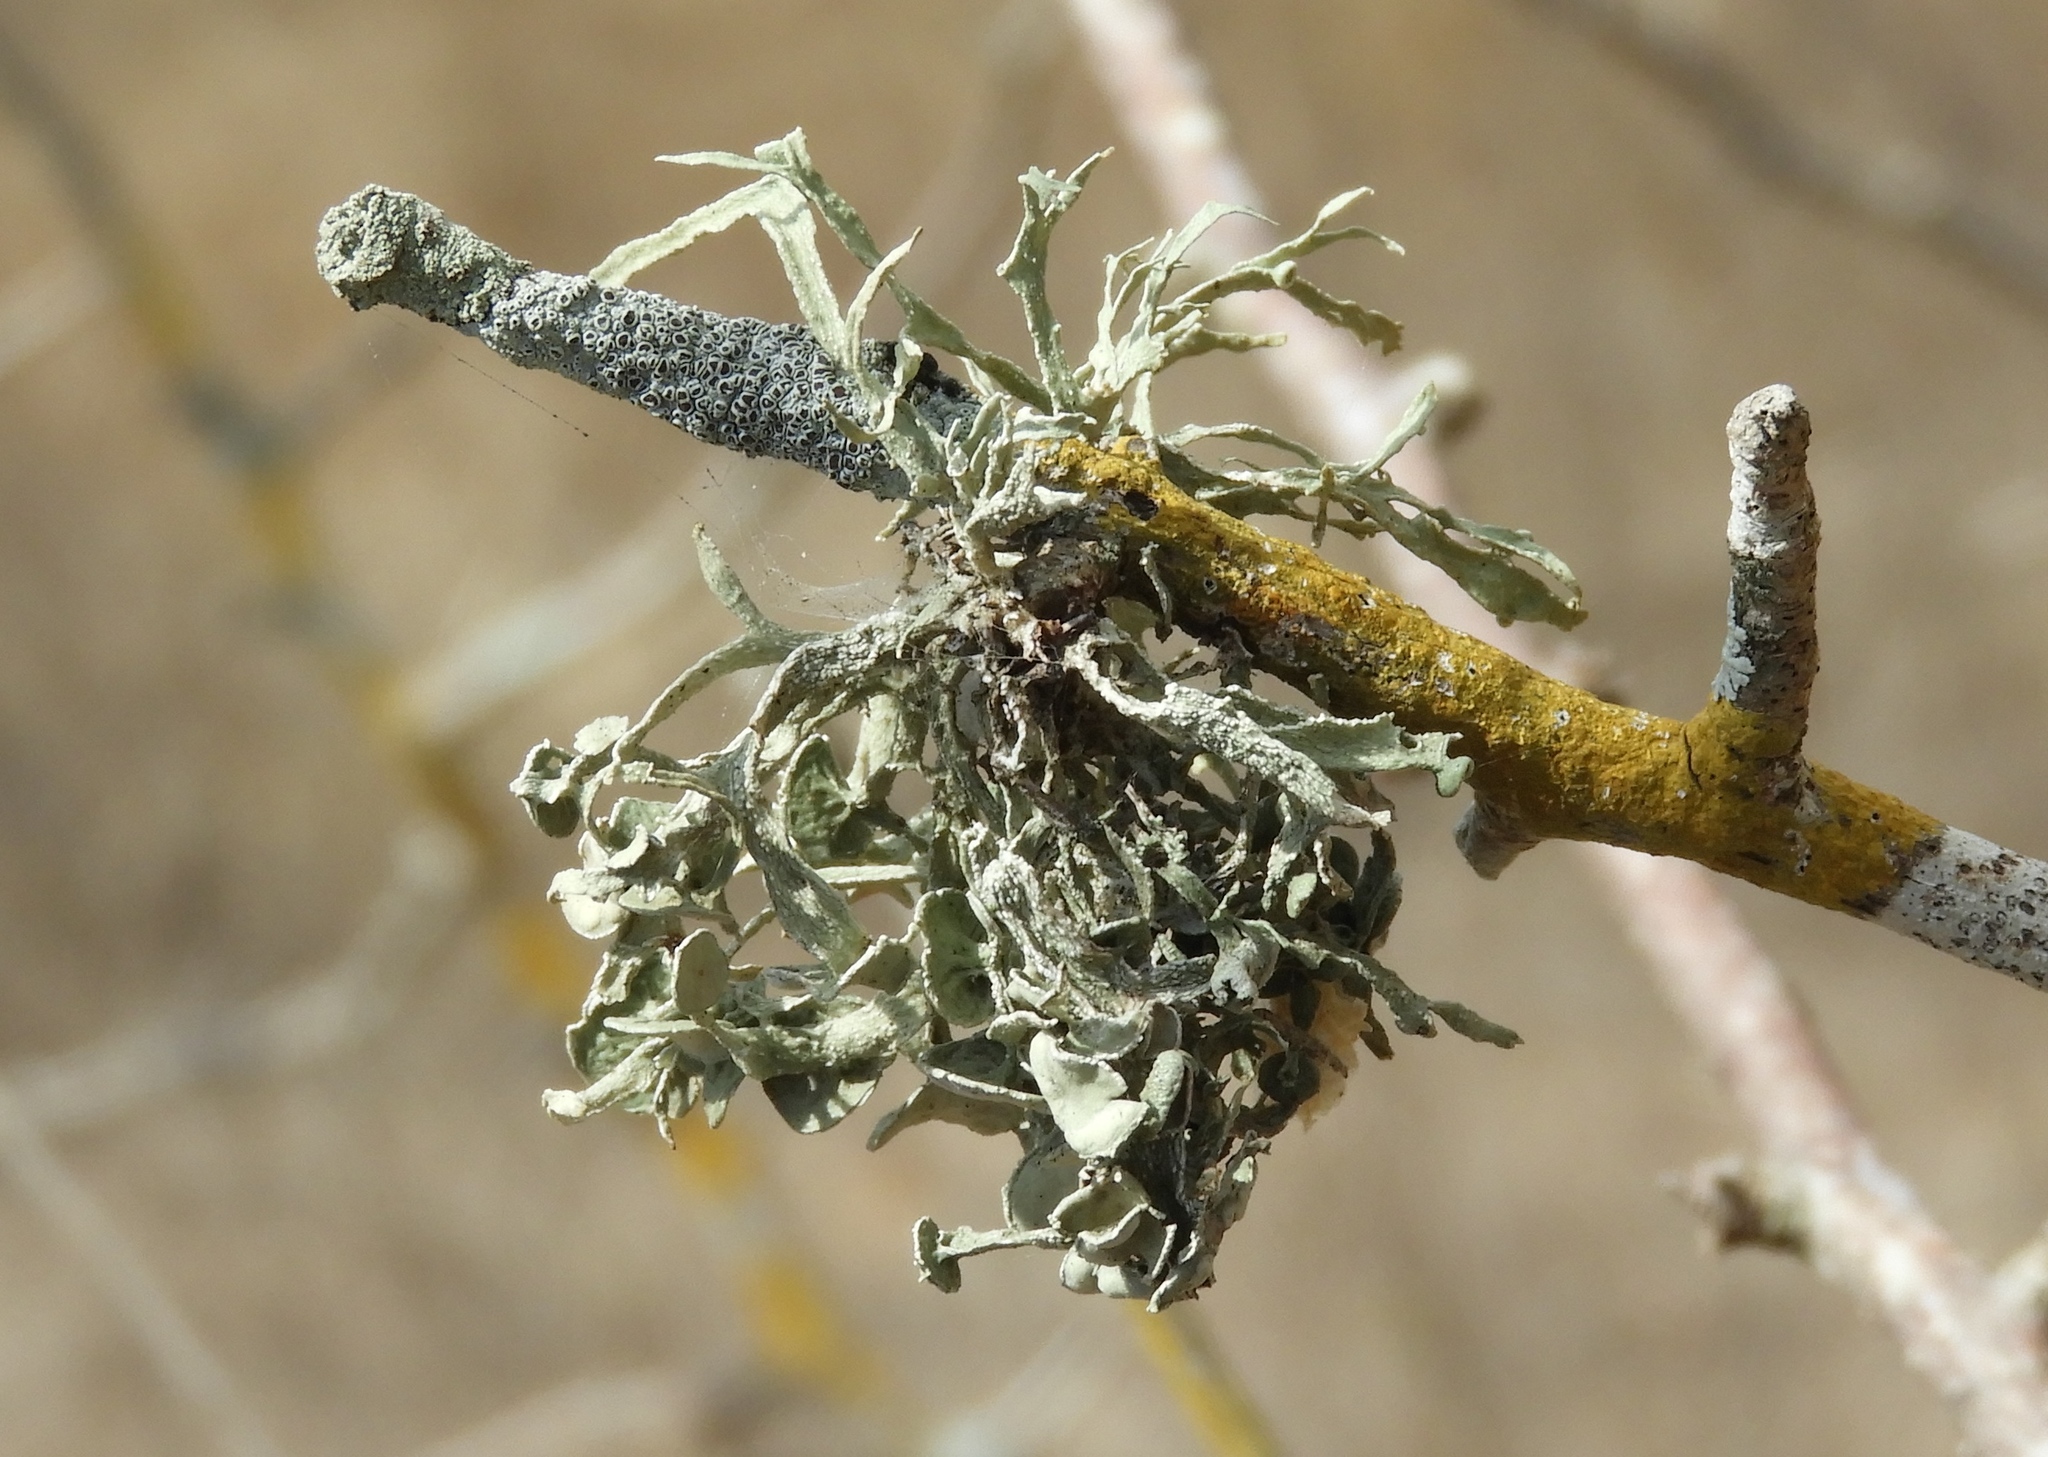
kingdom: Fungi
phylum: Ascomycota
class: Lecanoromycetes
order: Lecanorales
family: Ramalinaceae
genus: Ramalina
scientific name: Ramalina
